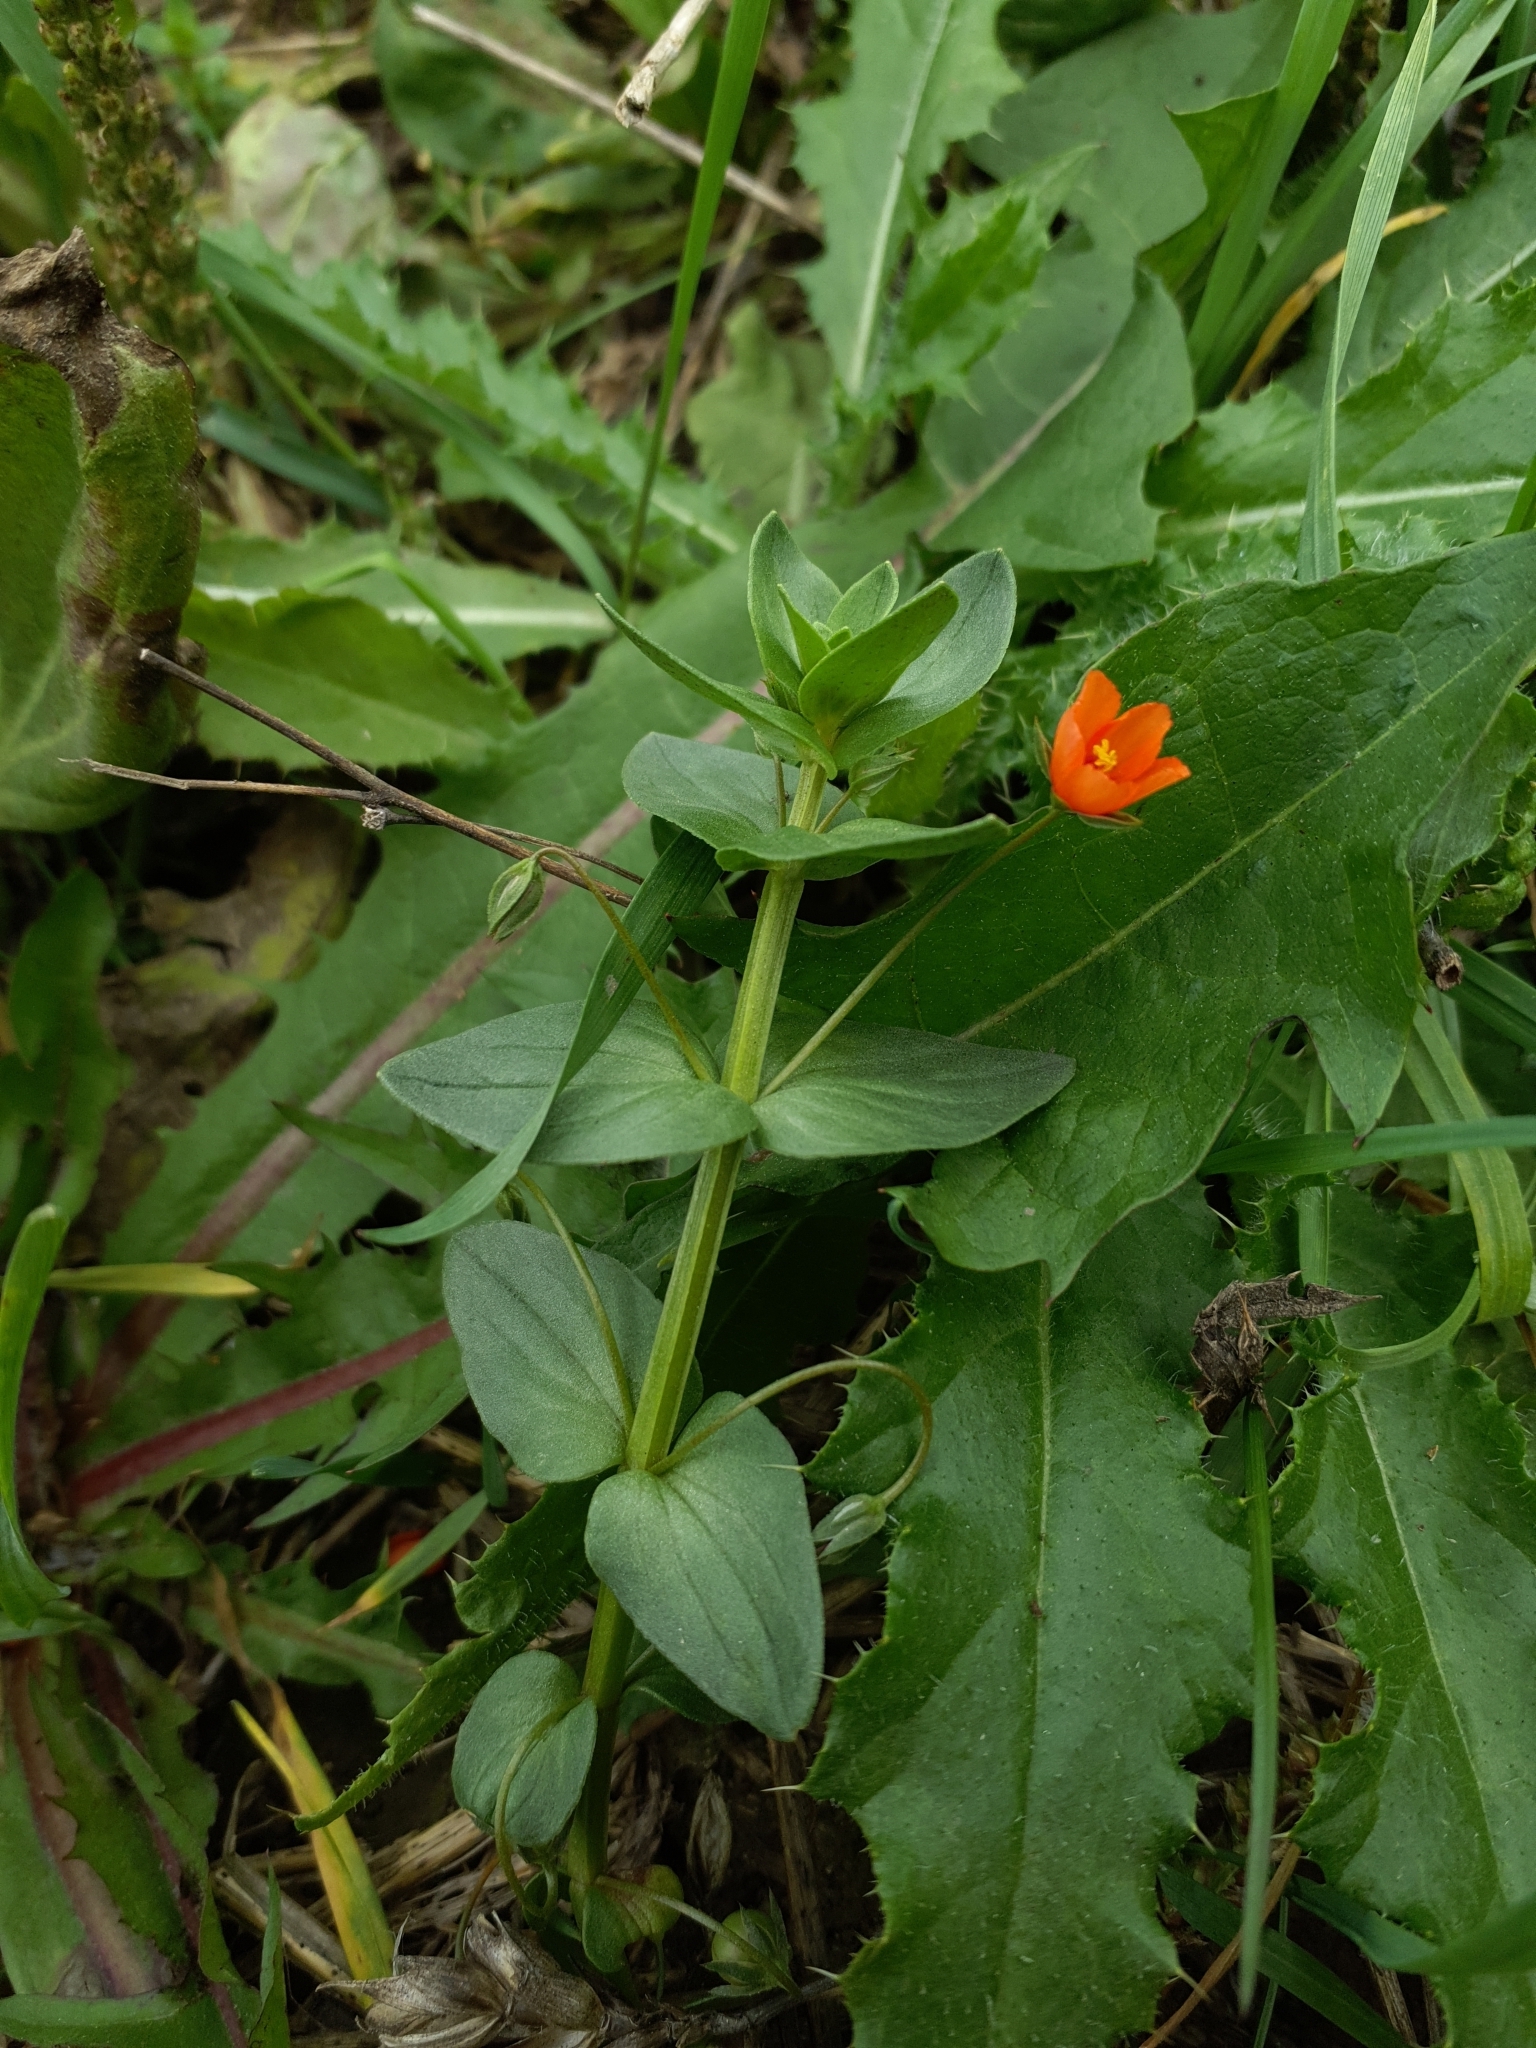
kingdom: Plantae
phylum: Tracheophyta
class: Magnoliopsida
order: Ericales
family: Primulaceae
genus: Lysimachia
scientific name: Lysimachia arvensis
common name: Scarlet pimpernel
